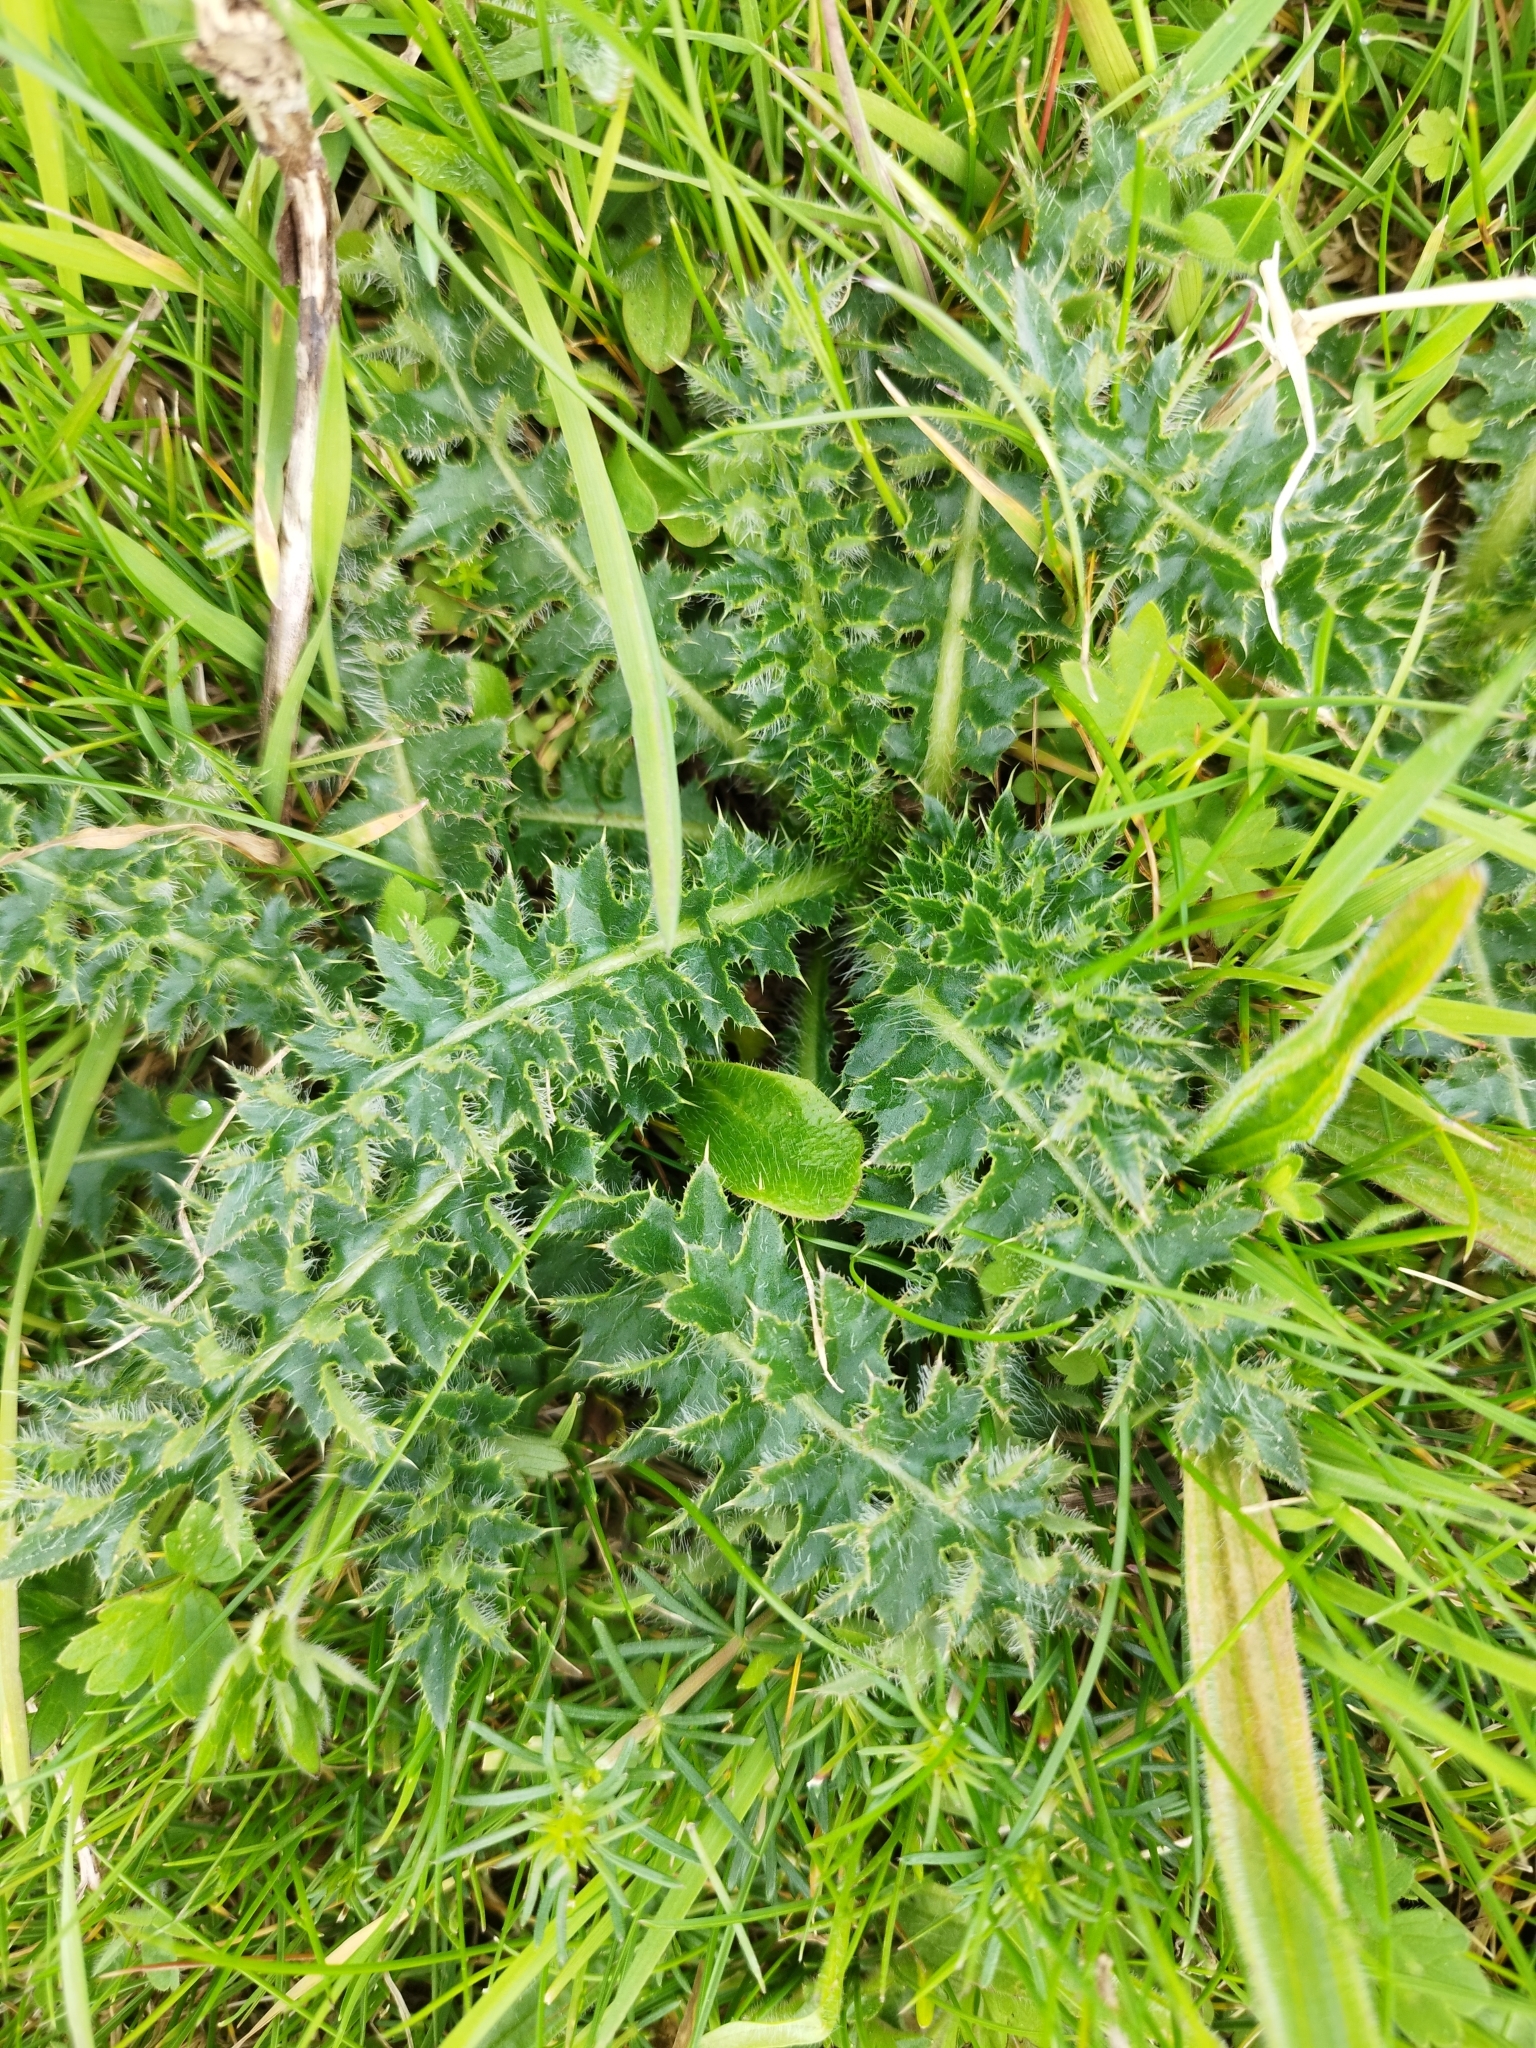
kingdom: Plantae
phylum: Tracheophyta
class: Magnoliopsida
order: Asterales
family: Asteraceae
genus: Cirsium
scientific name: Cirsium acaulon
